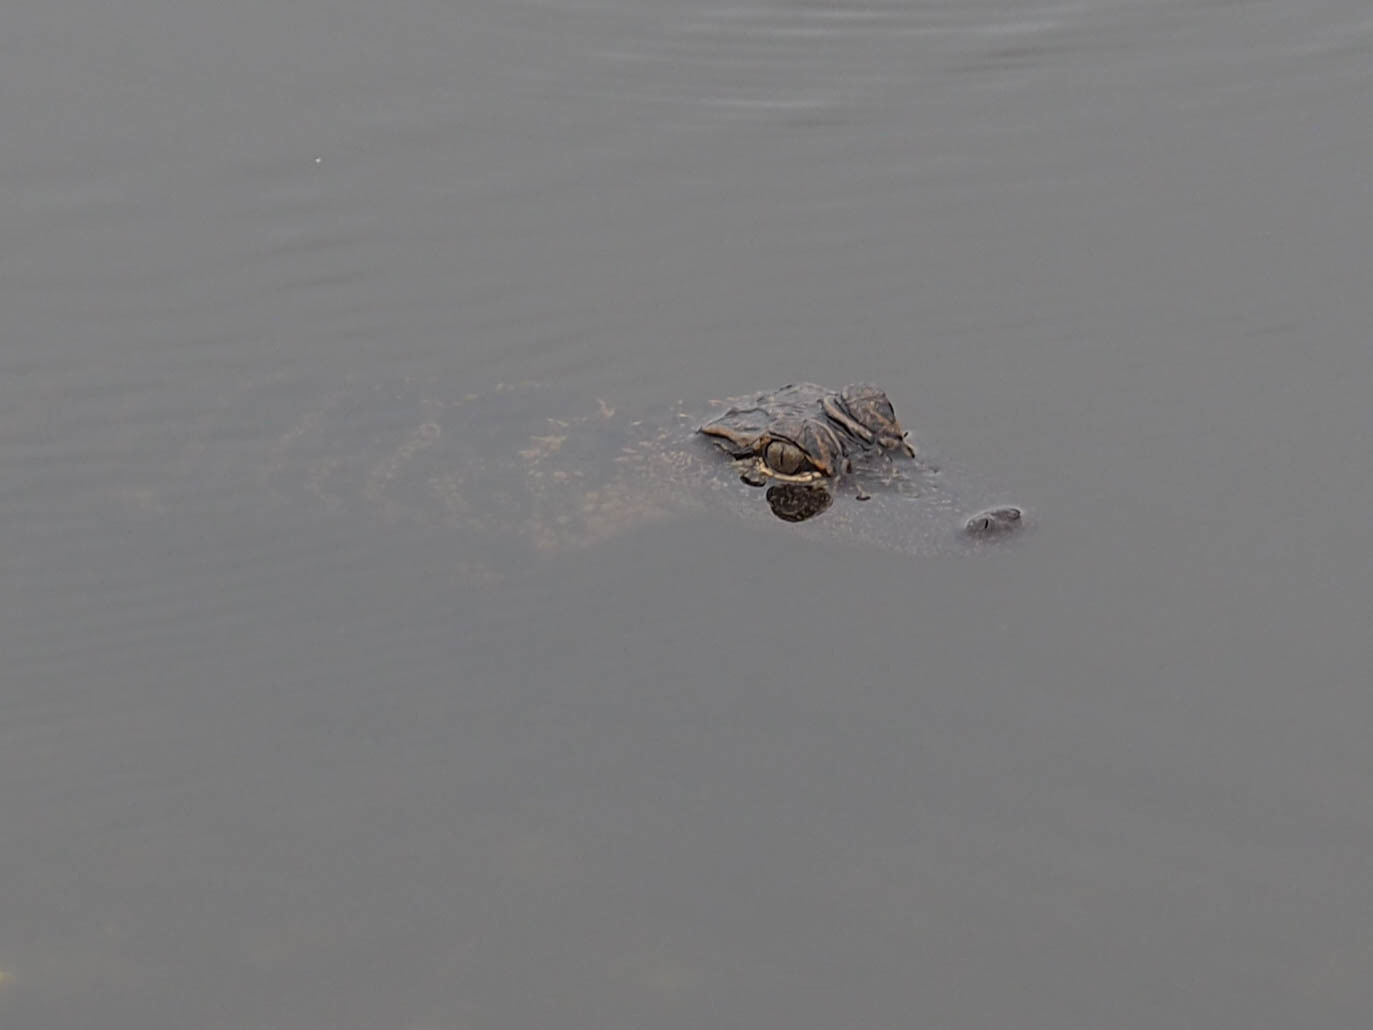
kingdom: Animalia
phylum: Chordata
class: Crocodylia
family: Alligatoridae
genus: Alligator
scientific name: Alligator mississippiensis
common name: American alligator
